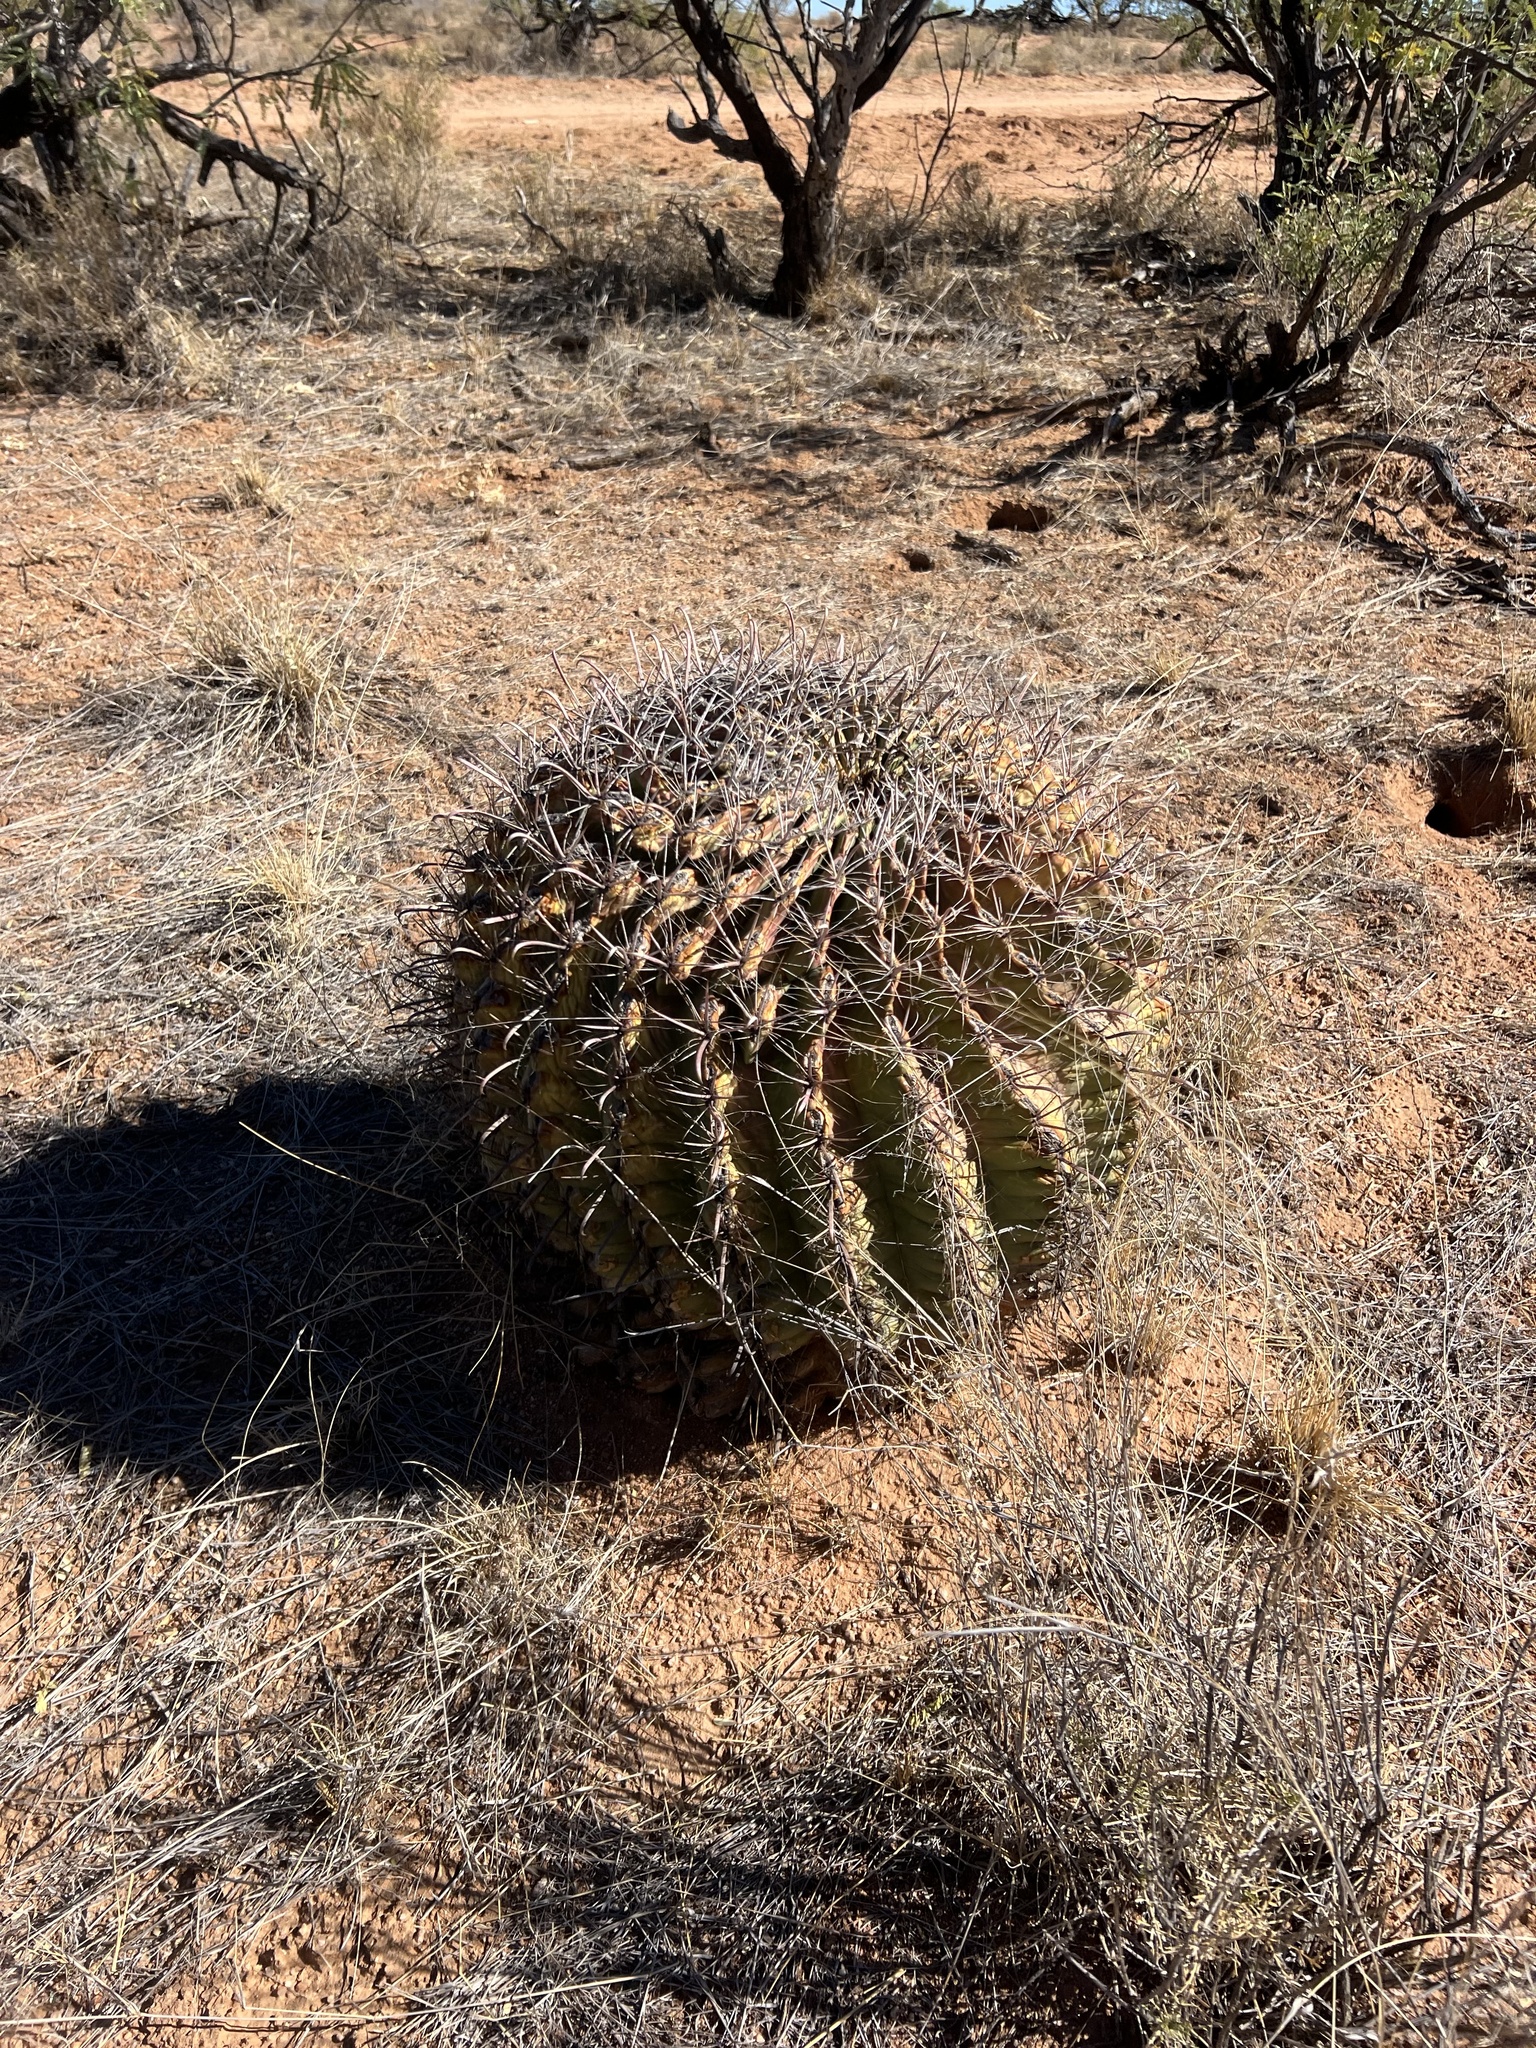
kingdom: Plantae
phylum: Tracheophyta
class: Magnoliopsida
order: Caryophyllales
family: Cactaceae
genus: Ferocactus
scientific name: Ferocactus wislizeni
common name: Candy barrel cactus
